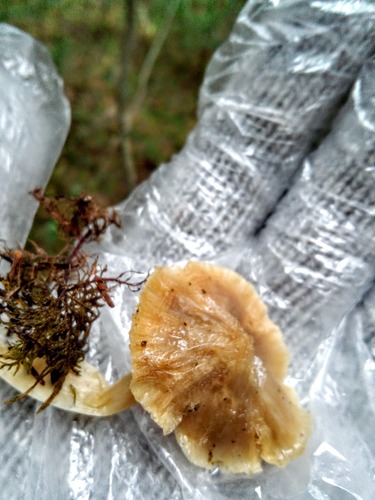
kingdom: Fungi
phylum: Basidiomycota
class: Agaricomycetes
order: Agaricales
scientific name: Agaricales
